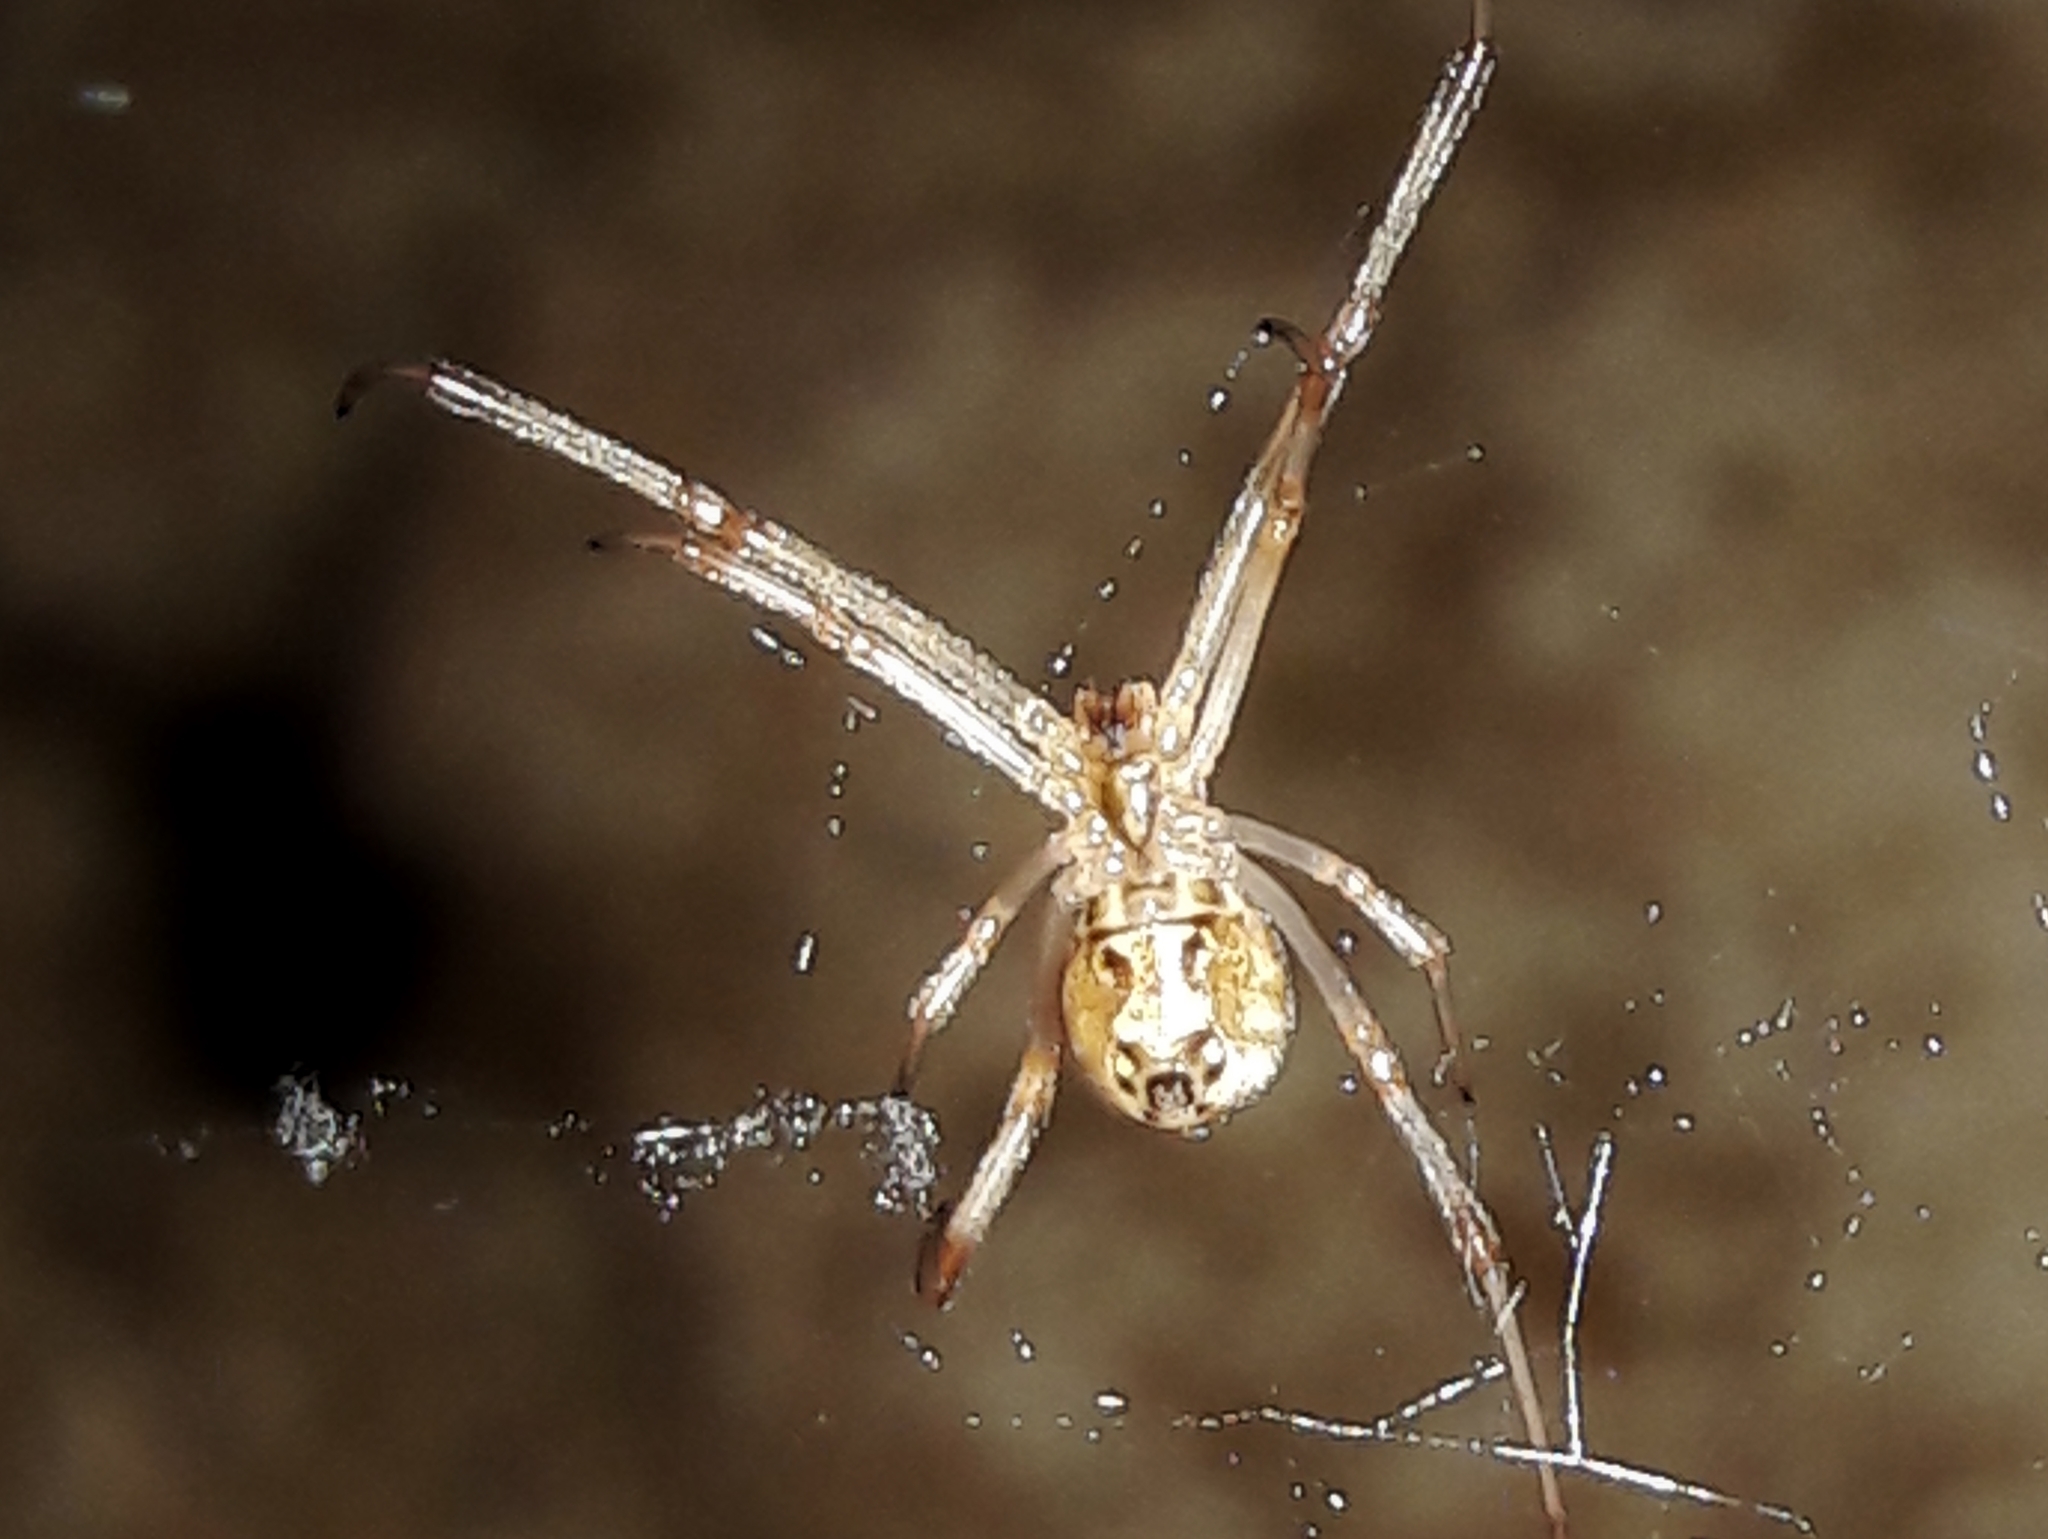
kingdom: Animalia
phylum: Arthropoda
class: Arachnida
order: Araneae
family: Theridiidae
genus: Latrodectus
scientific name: Latrodectus geometricus
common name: Brown widow spider
